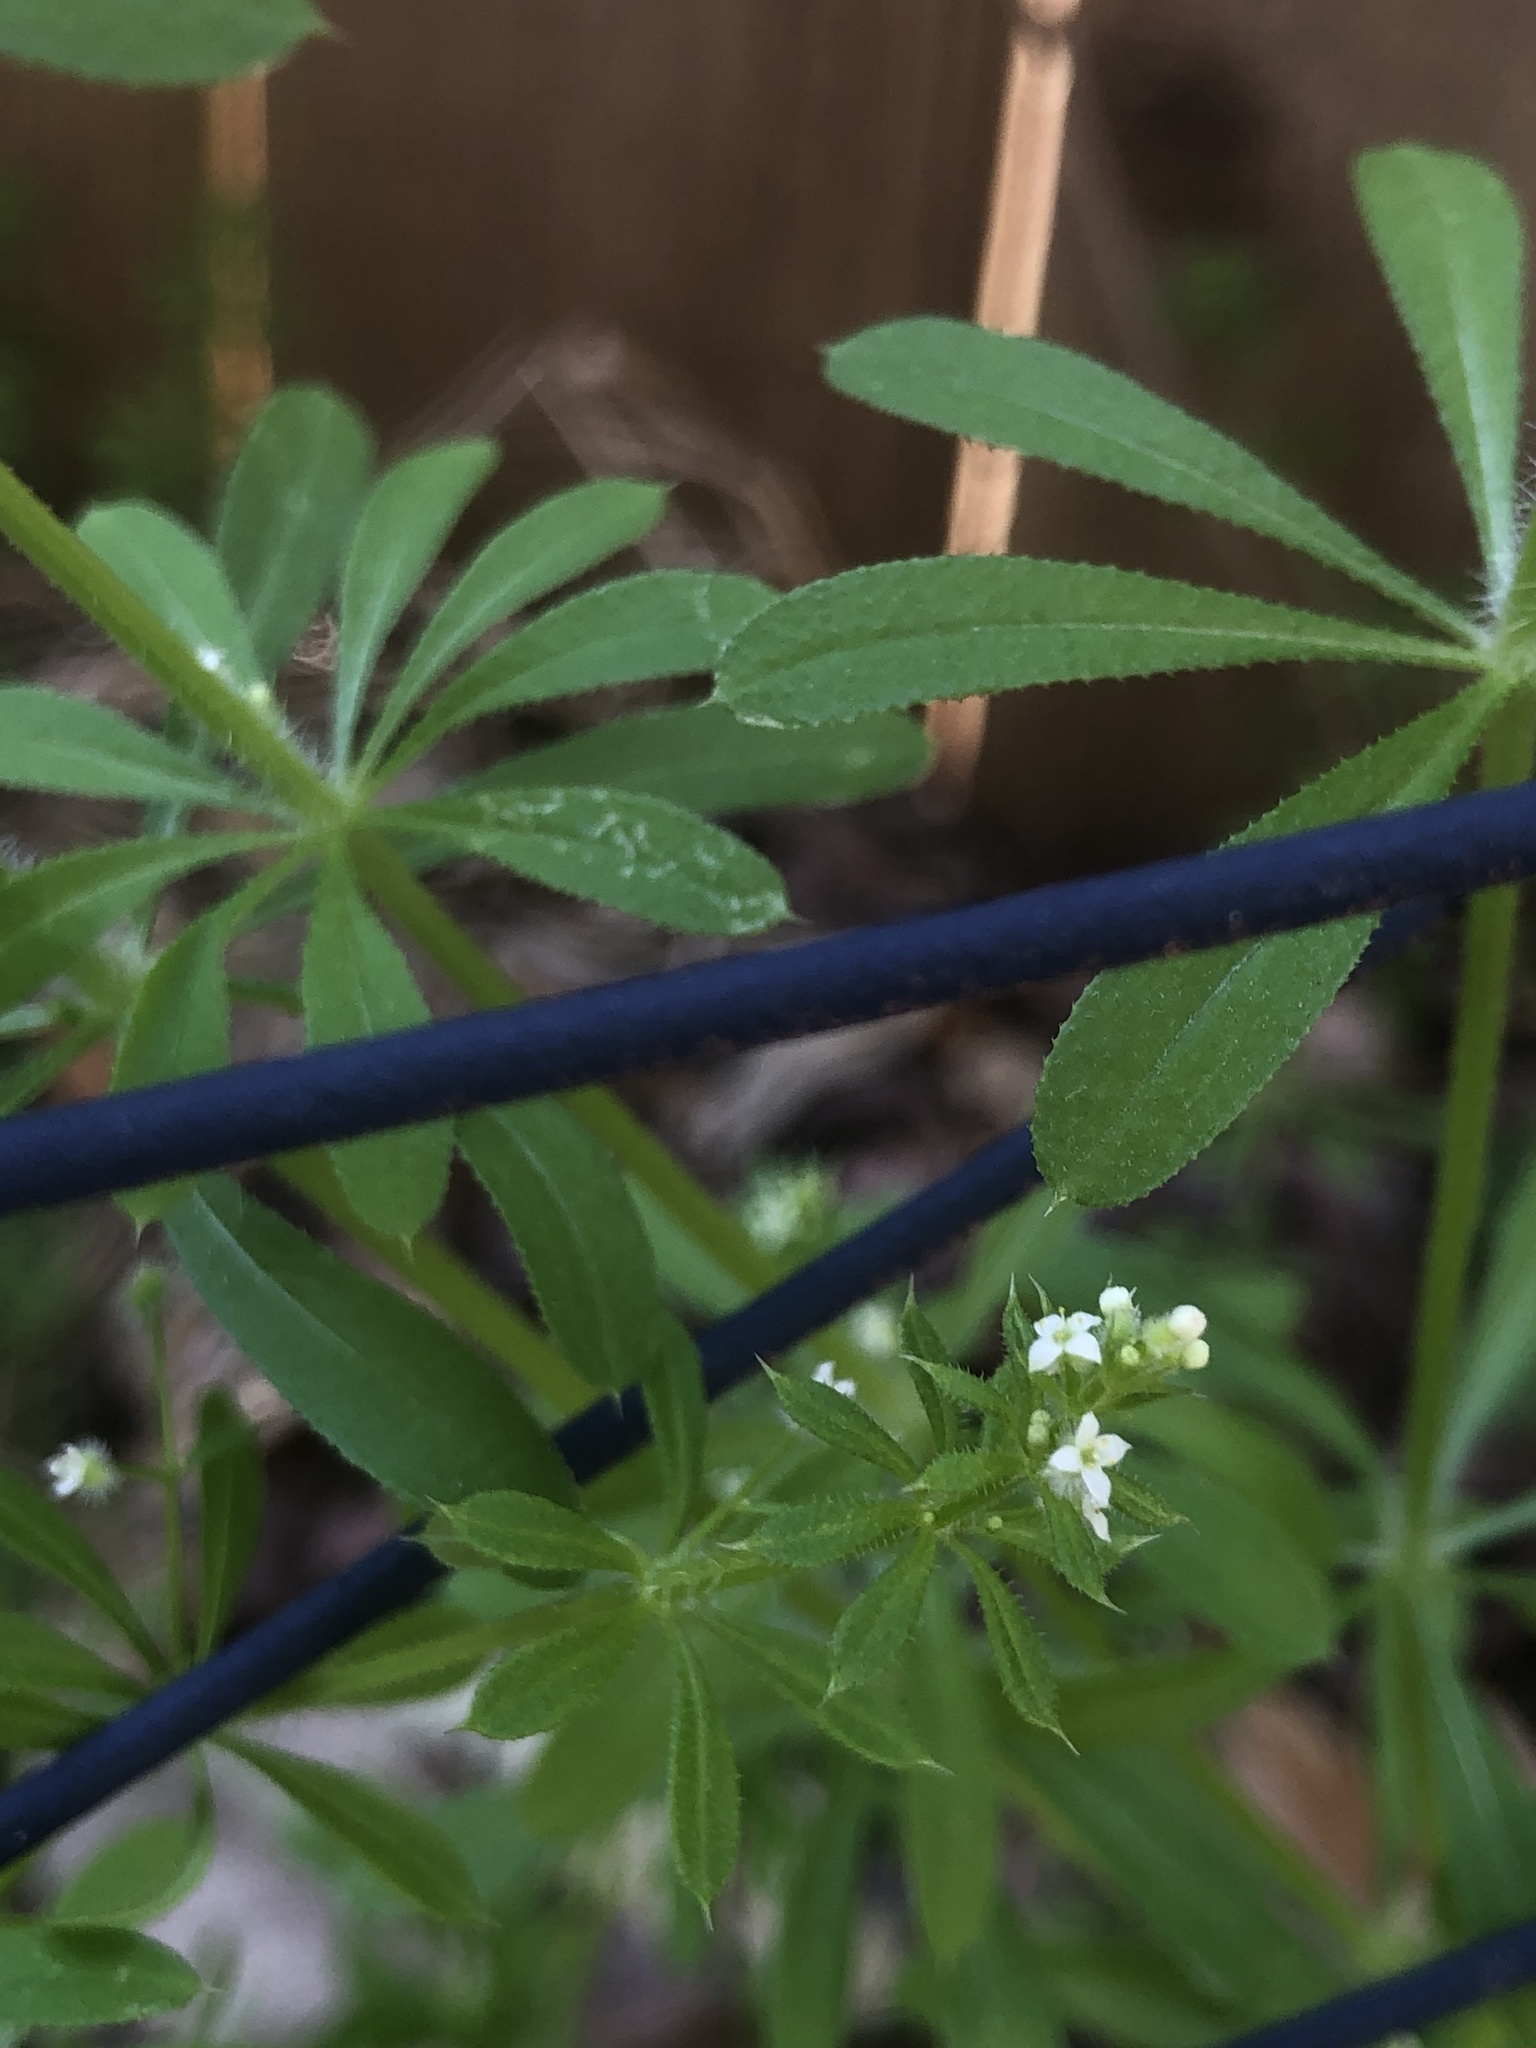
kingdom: Plantae
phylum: Tracheophyta
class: Magnoliopsida
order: Gentianales
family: Rubiaceae
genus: Galium
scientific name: Galium aparine
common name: Cleavers
